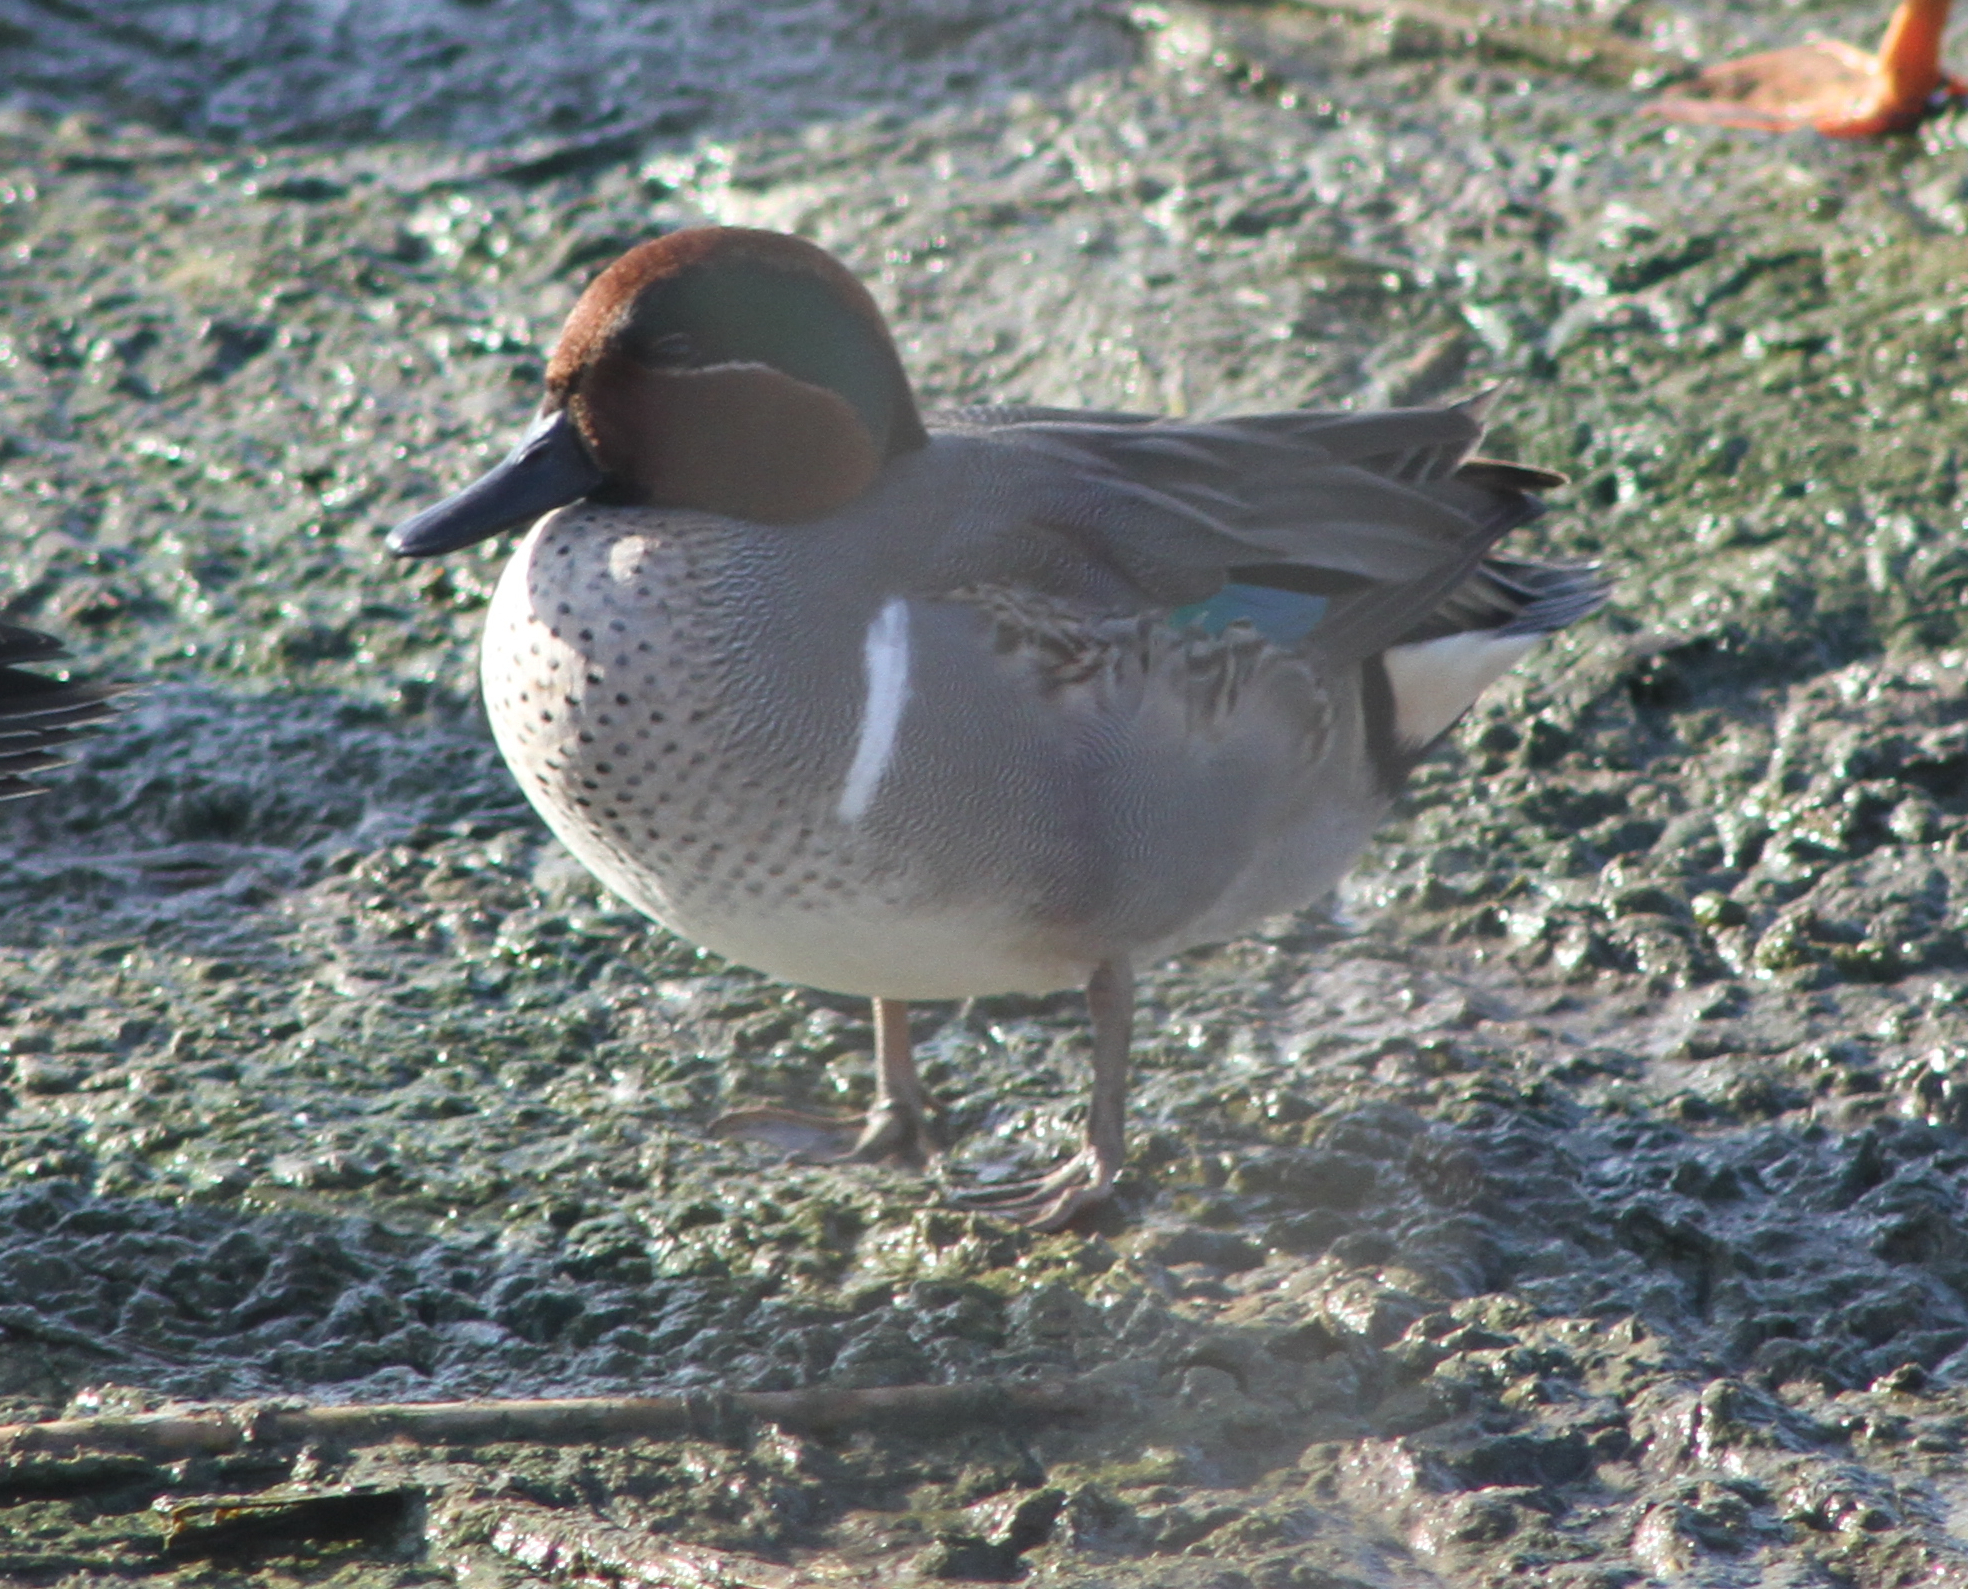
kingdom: Animalia
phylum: Chordata
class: Aves
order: Anseriformes
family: Anatidae
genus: Anas
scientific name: Anas crecca
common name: Eurasian teal
